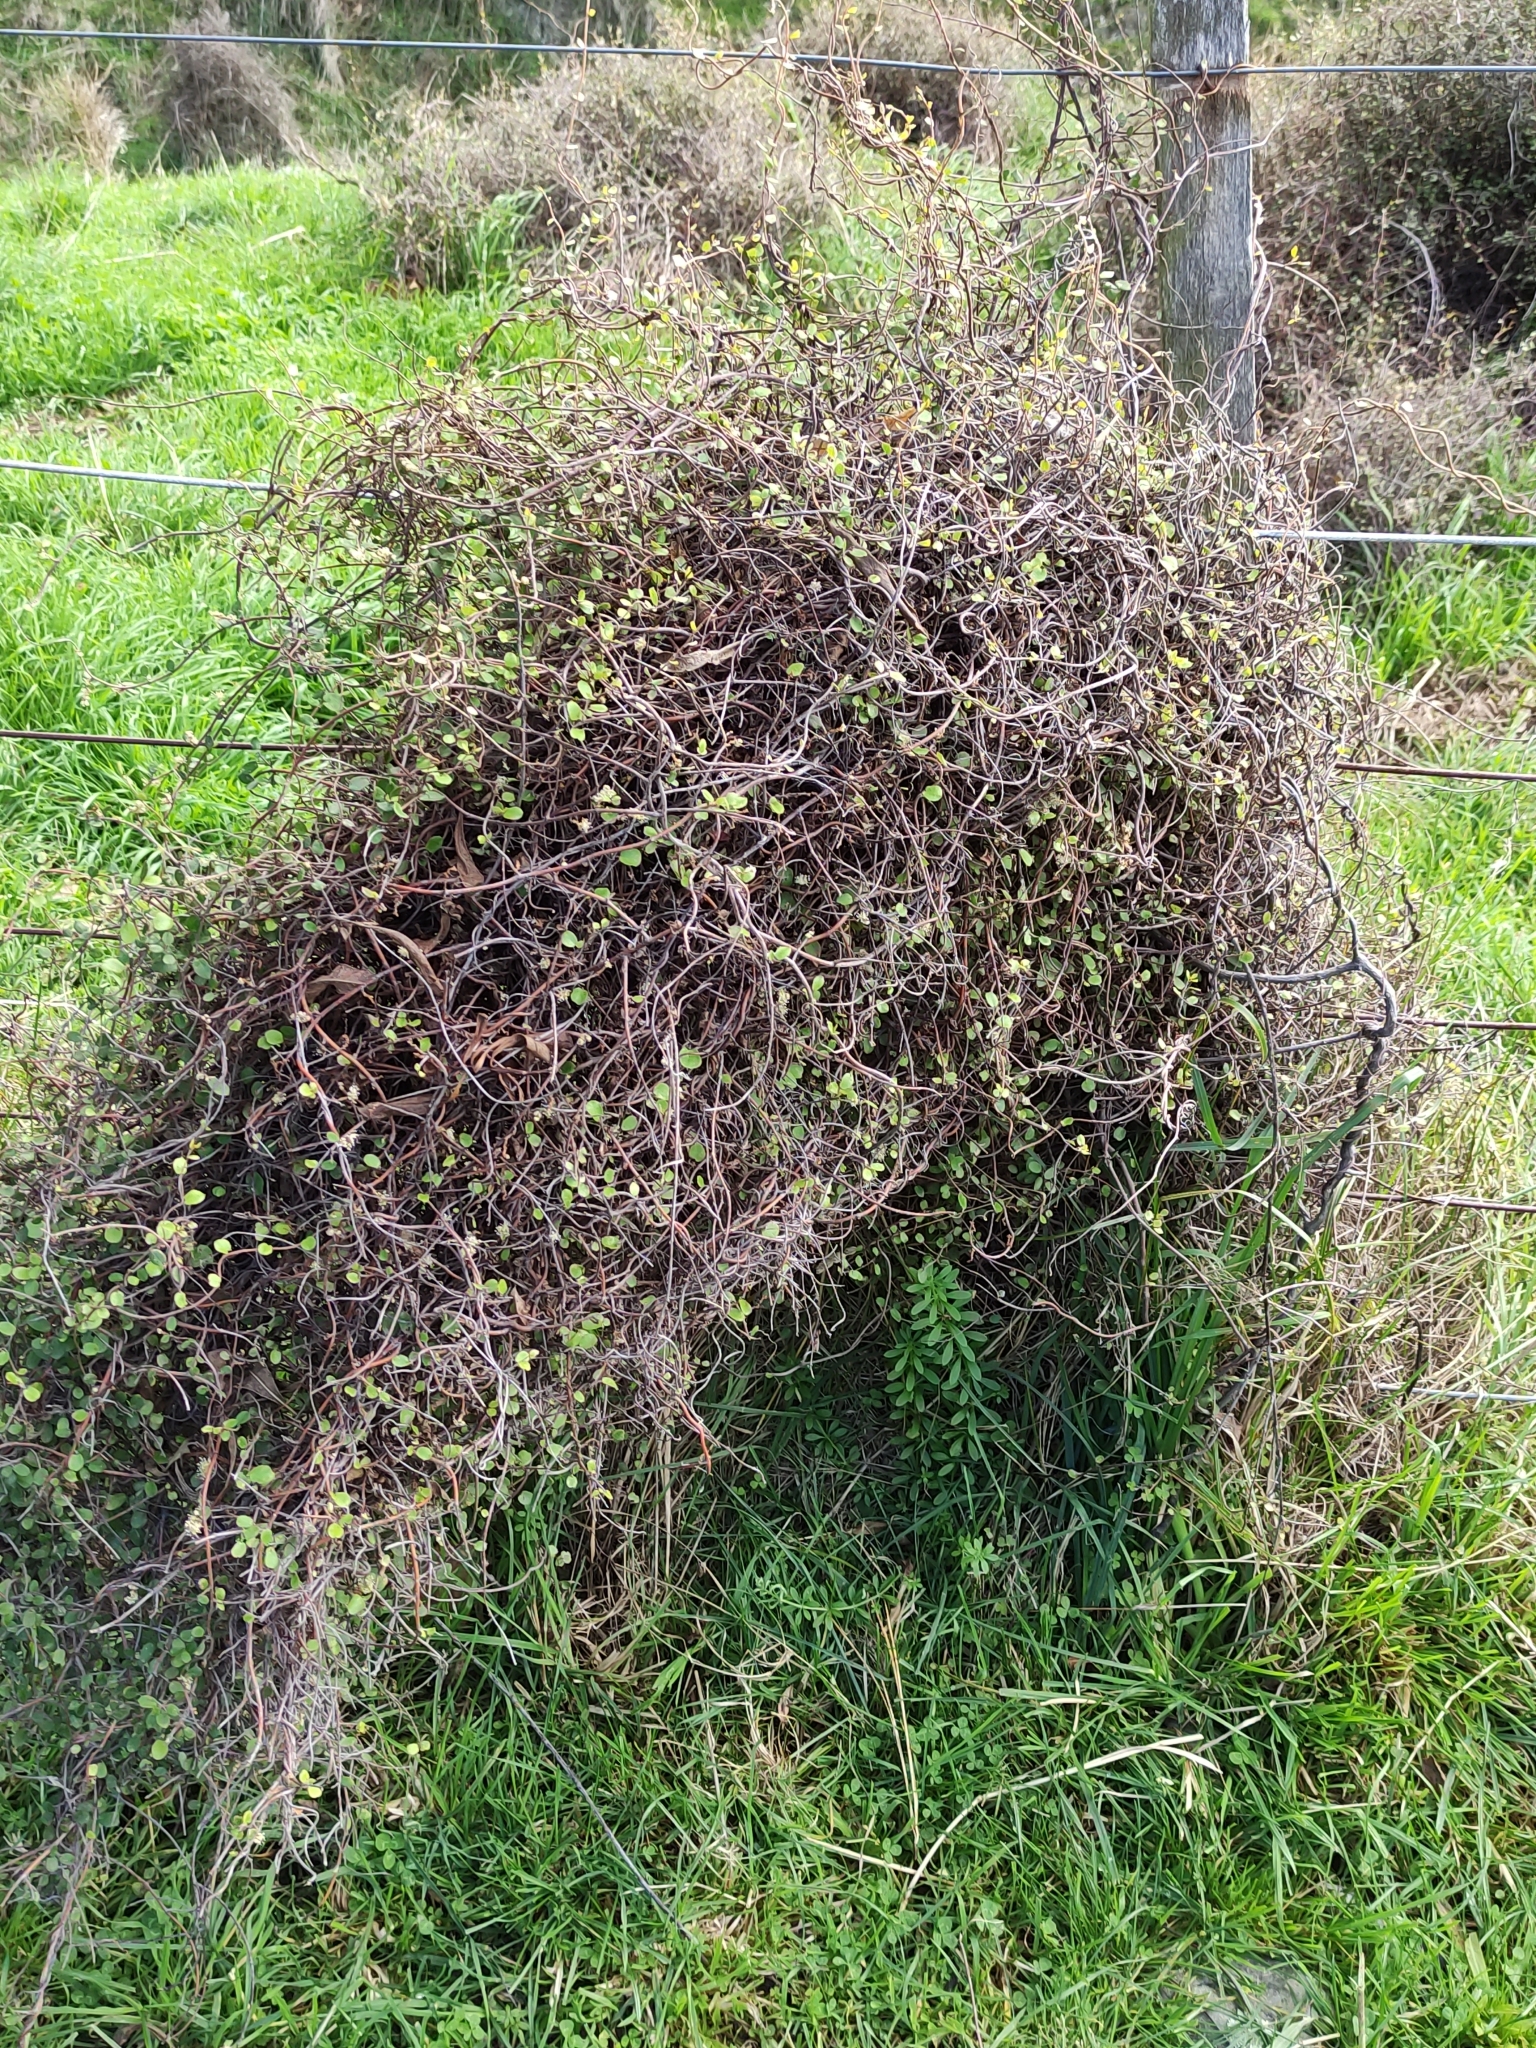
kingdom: Plantae
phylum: Tracheophyta
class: Magnoliopsida
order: Caryophyllales
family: Polygonaceae
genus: Muehlenbeckia
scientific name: Muehlenbeckia complexa
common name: Wireplant
